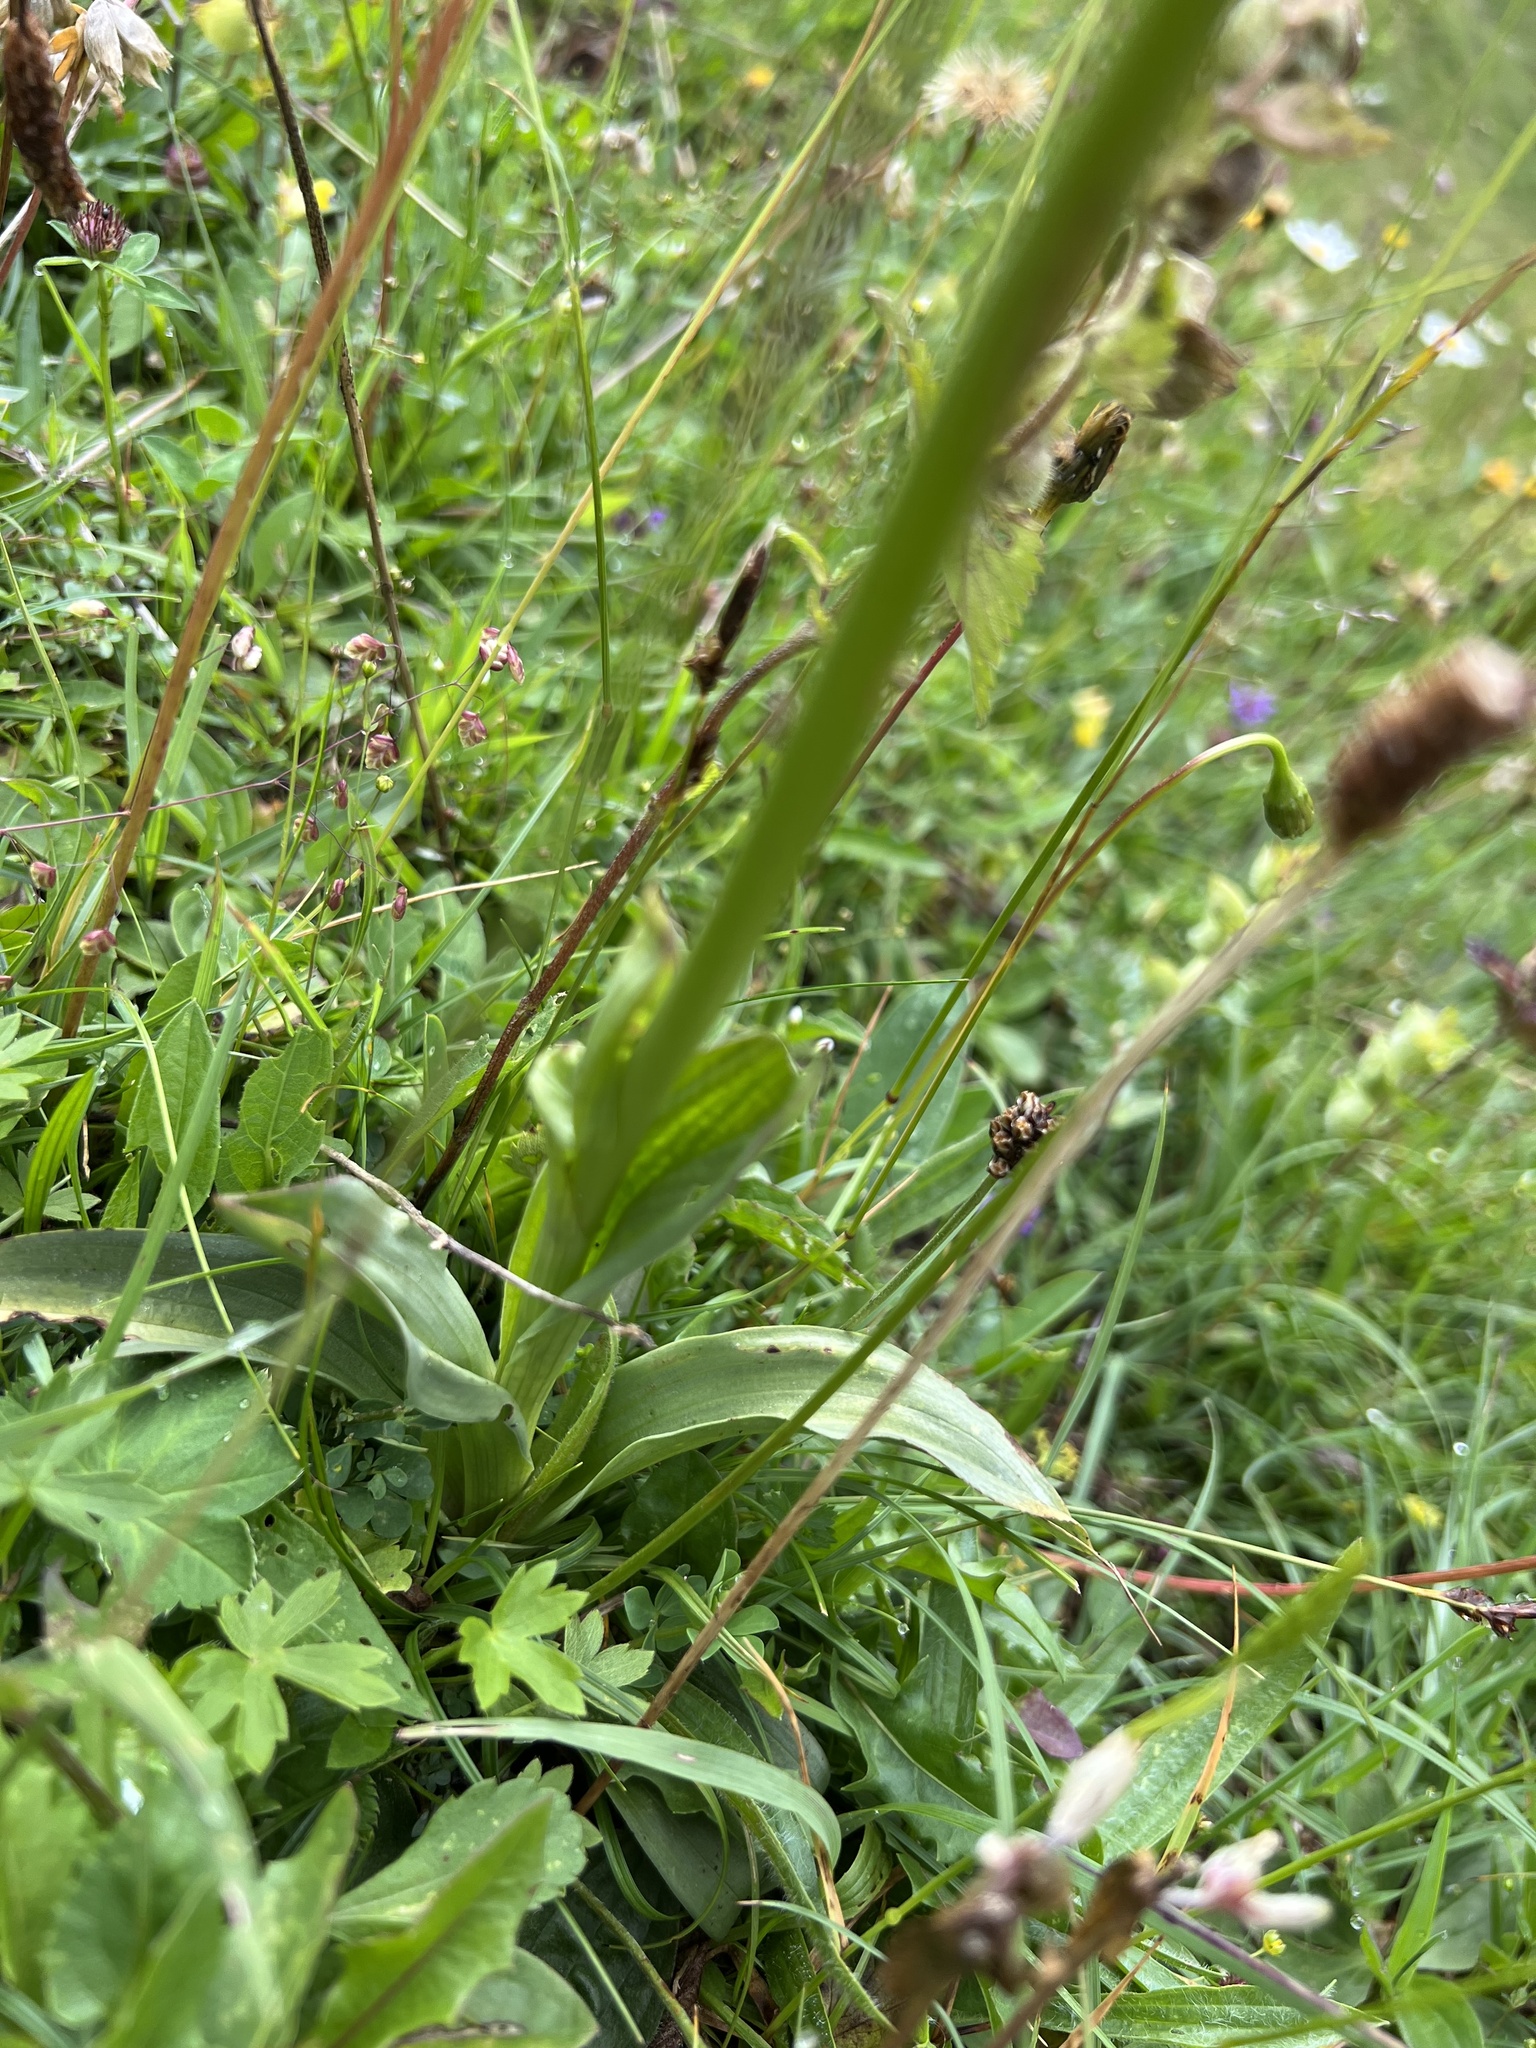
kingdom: Plantae
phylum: Tracheophyta
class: Liliopsida
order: Asparagales
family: Orchidaceae
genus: Neotinea
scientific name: Neotinea ustulata
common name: Burnt orchid
